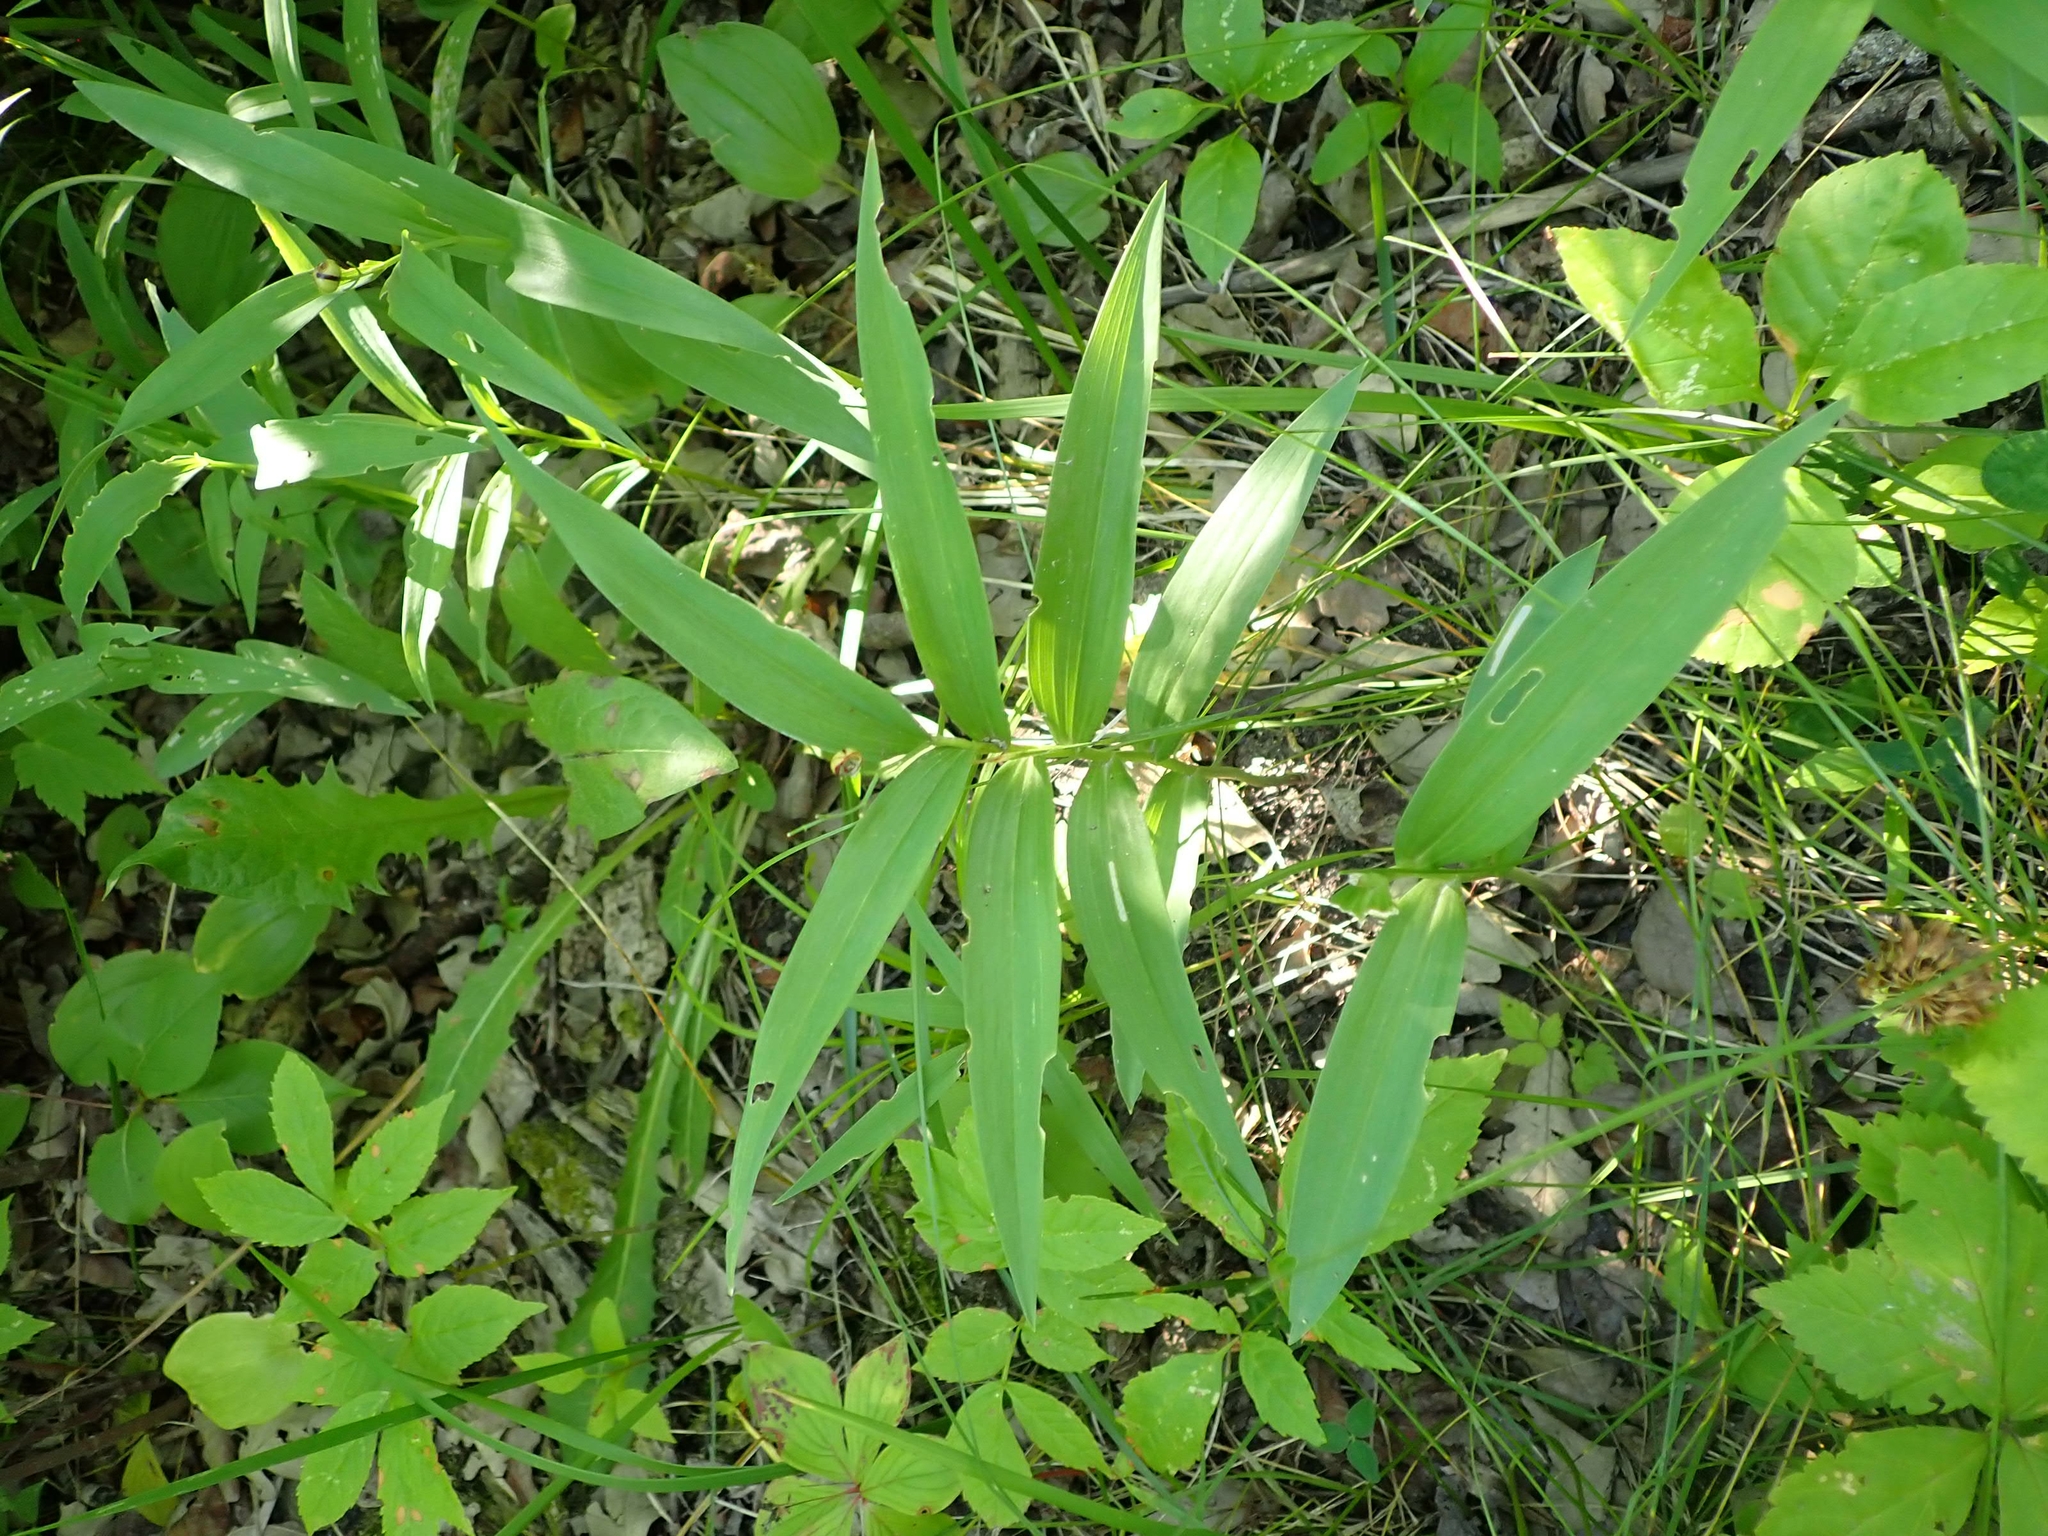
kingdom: Plantae
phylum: Tracheophyta
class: Liliopsida
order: Asparagales
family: Asparagaceae
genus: Maianthemum
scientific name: Maianthemum stellatum
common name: Little false solomon's seal
